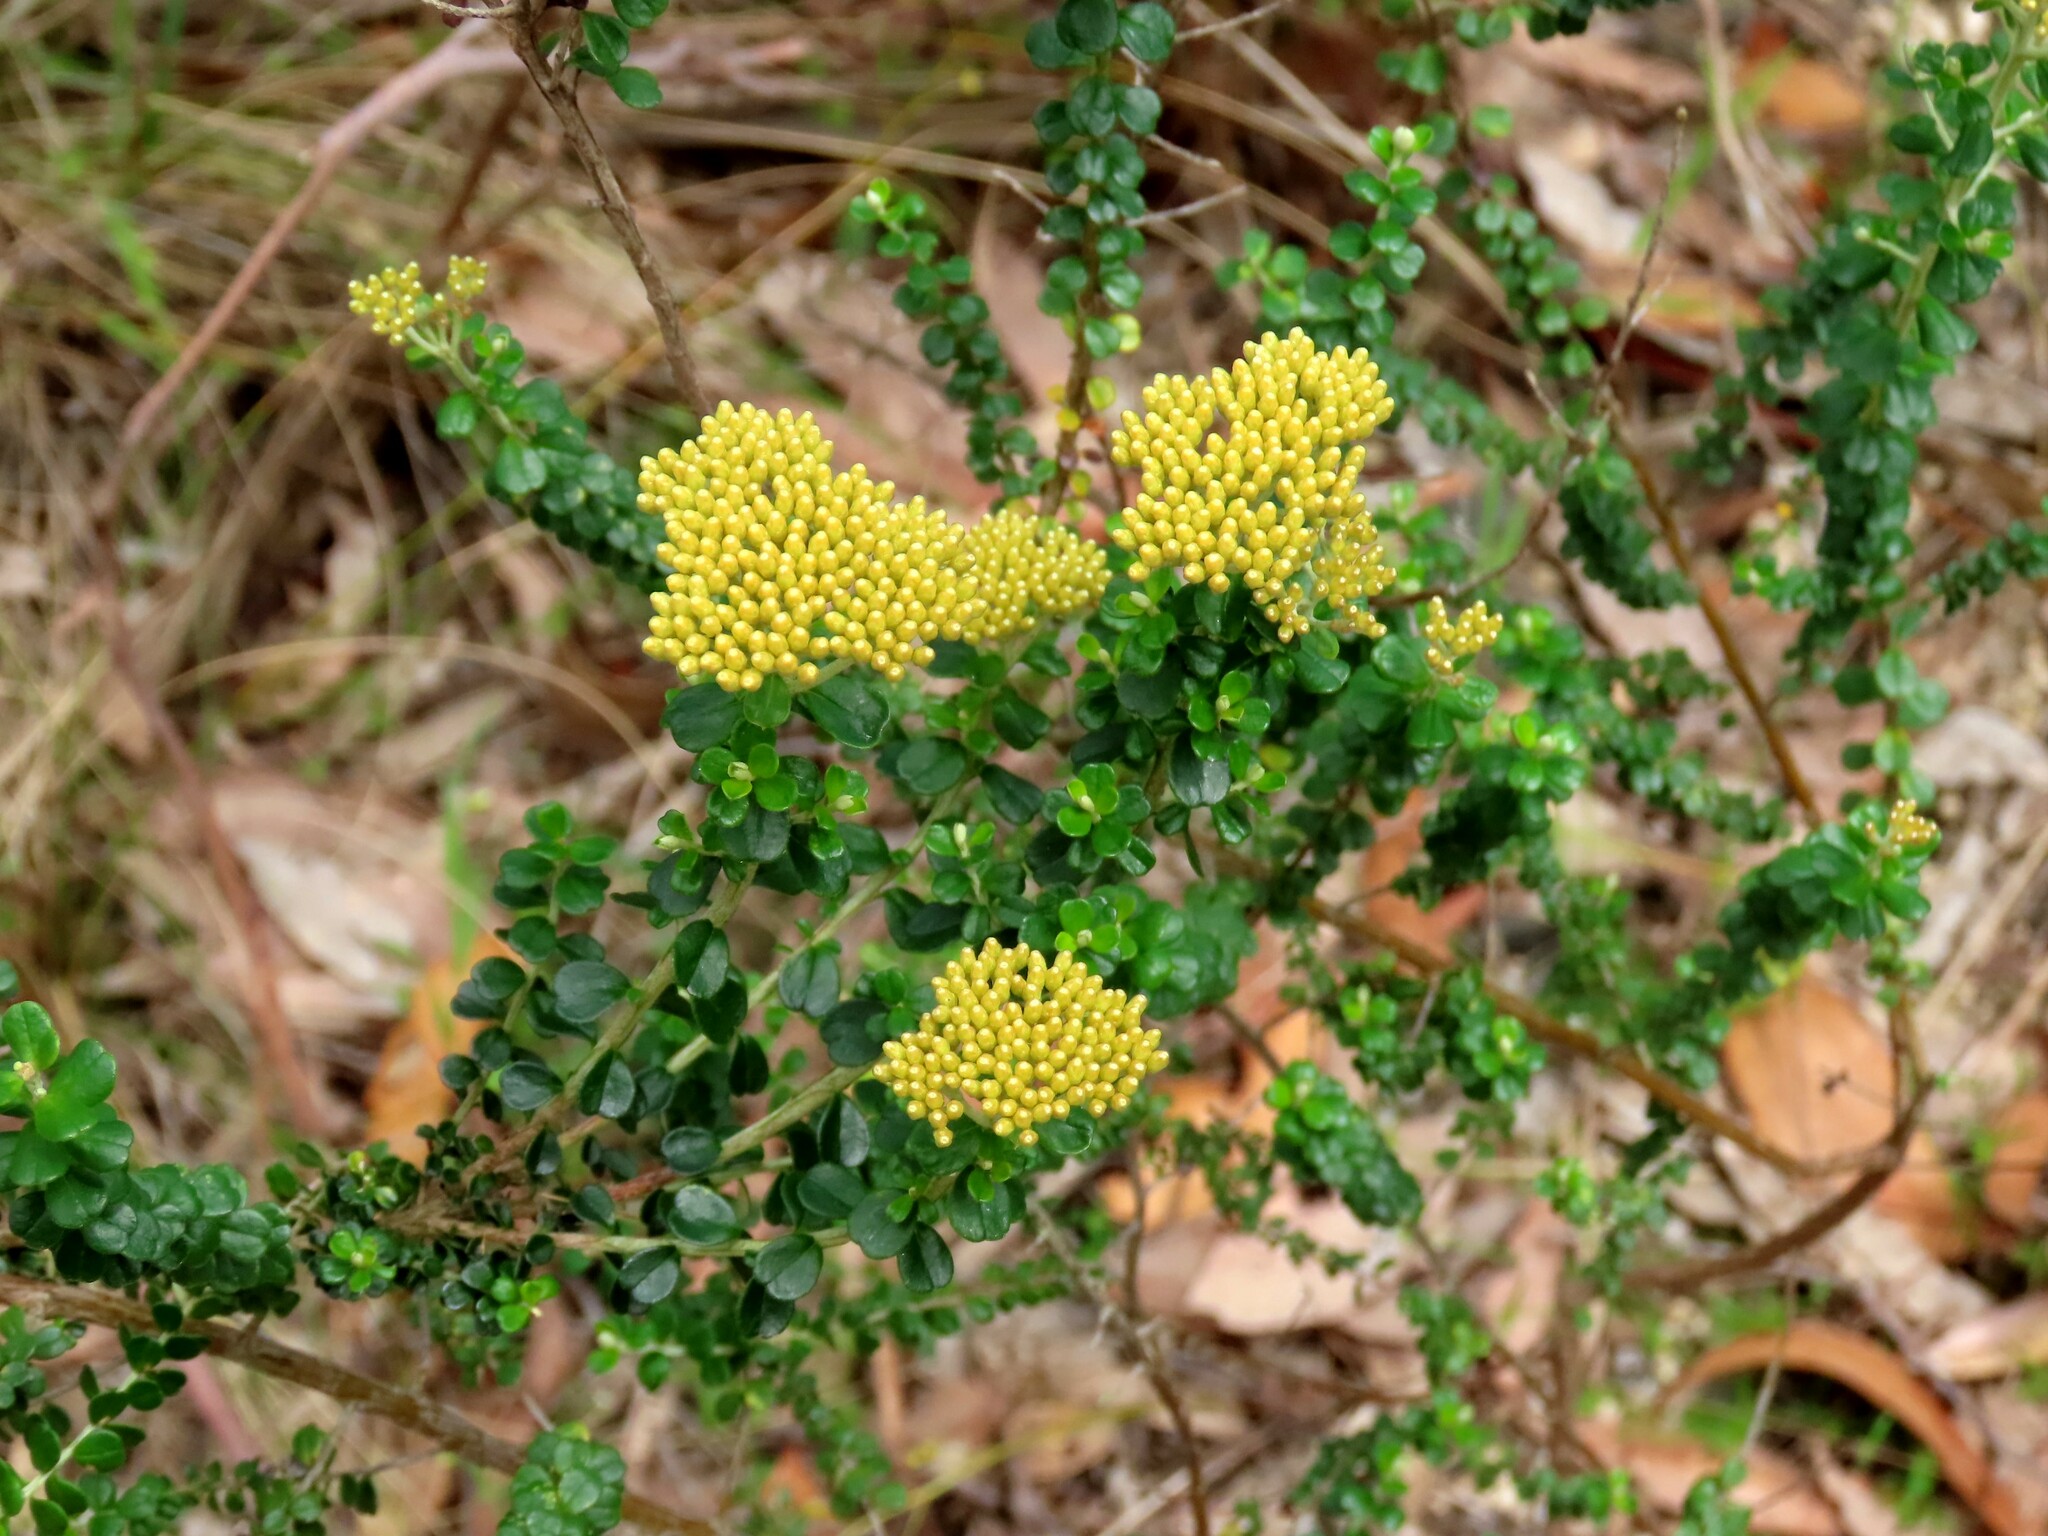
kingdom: Plantae
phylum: Tracheophyta
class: Magnoliopsida
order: Asterales
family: Asteraceae
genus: Ozothamnus
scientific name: Ozothamnus obcordatus
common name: Grey everlasting
